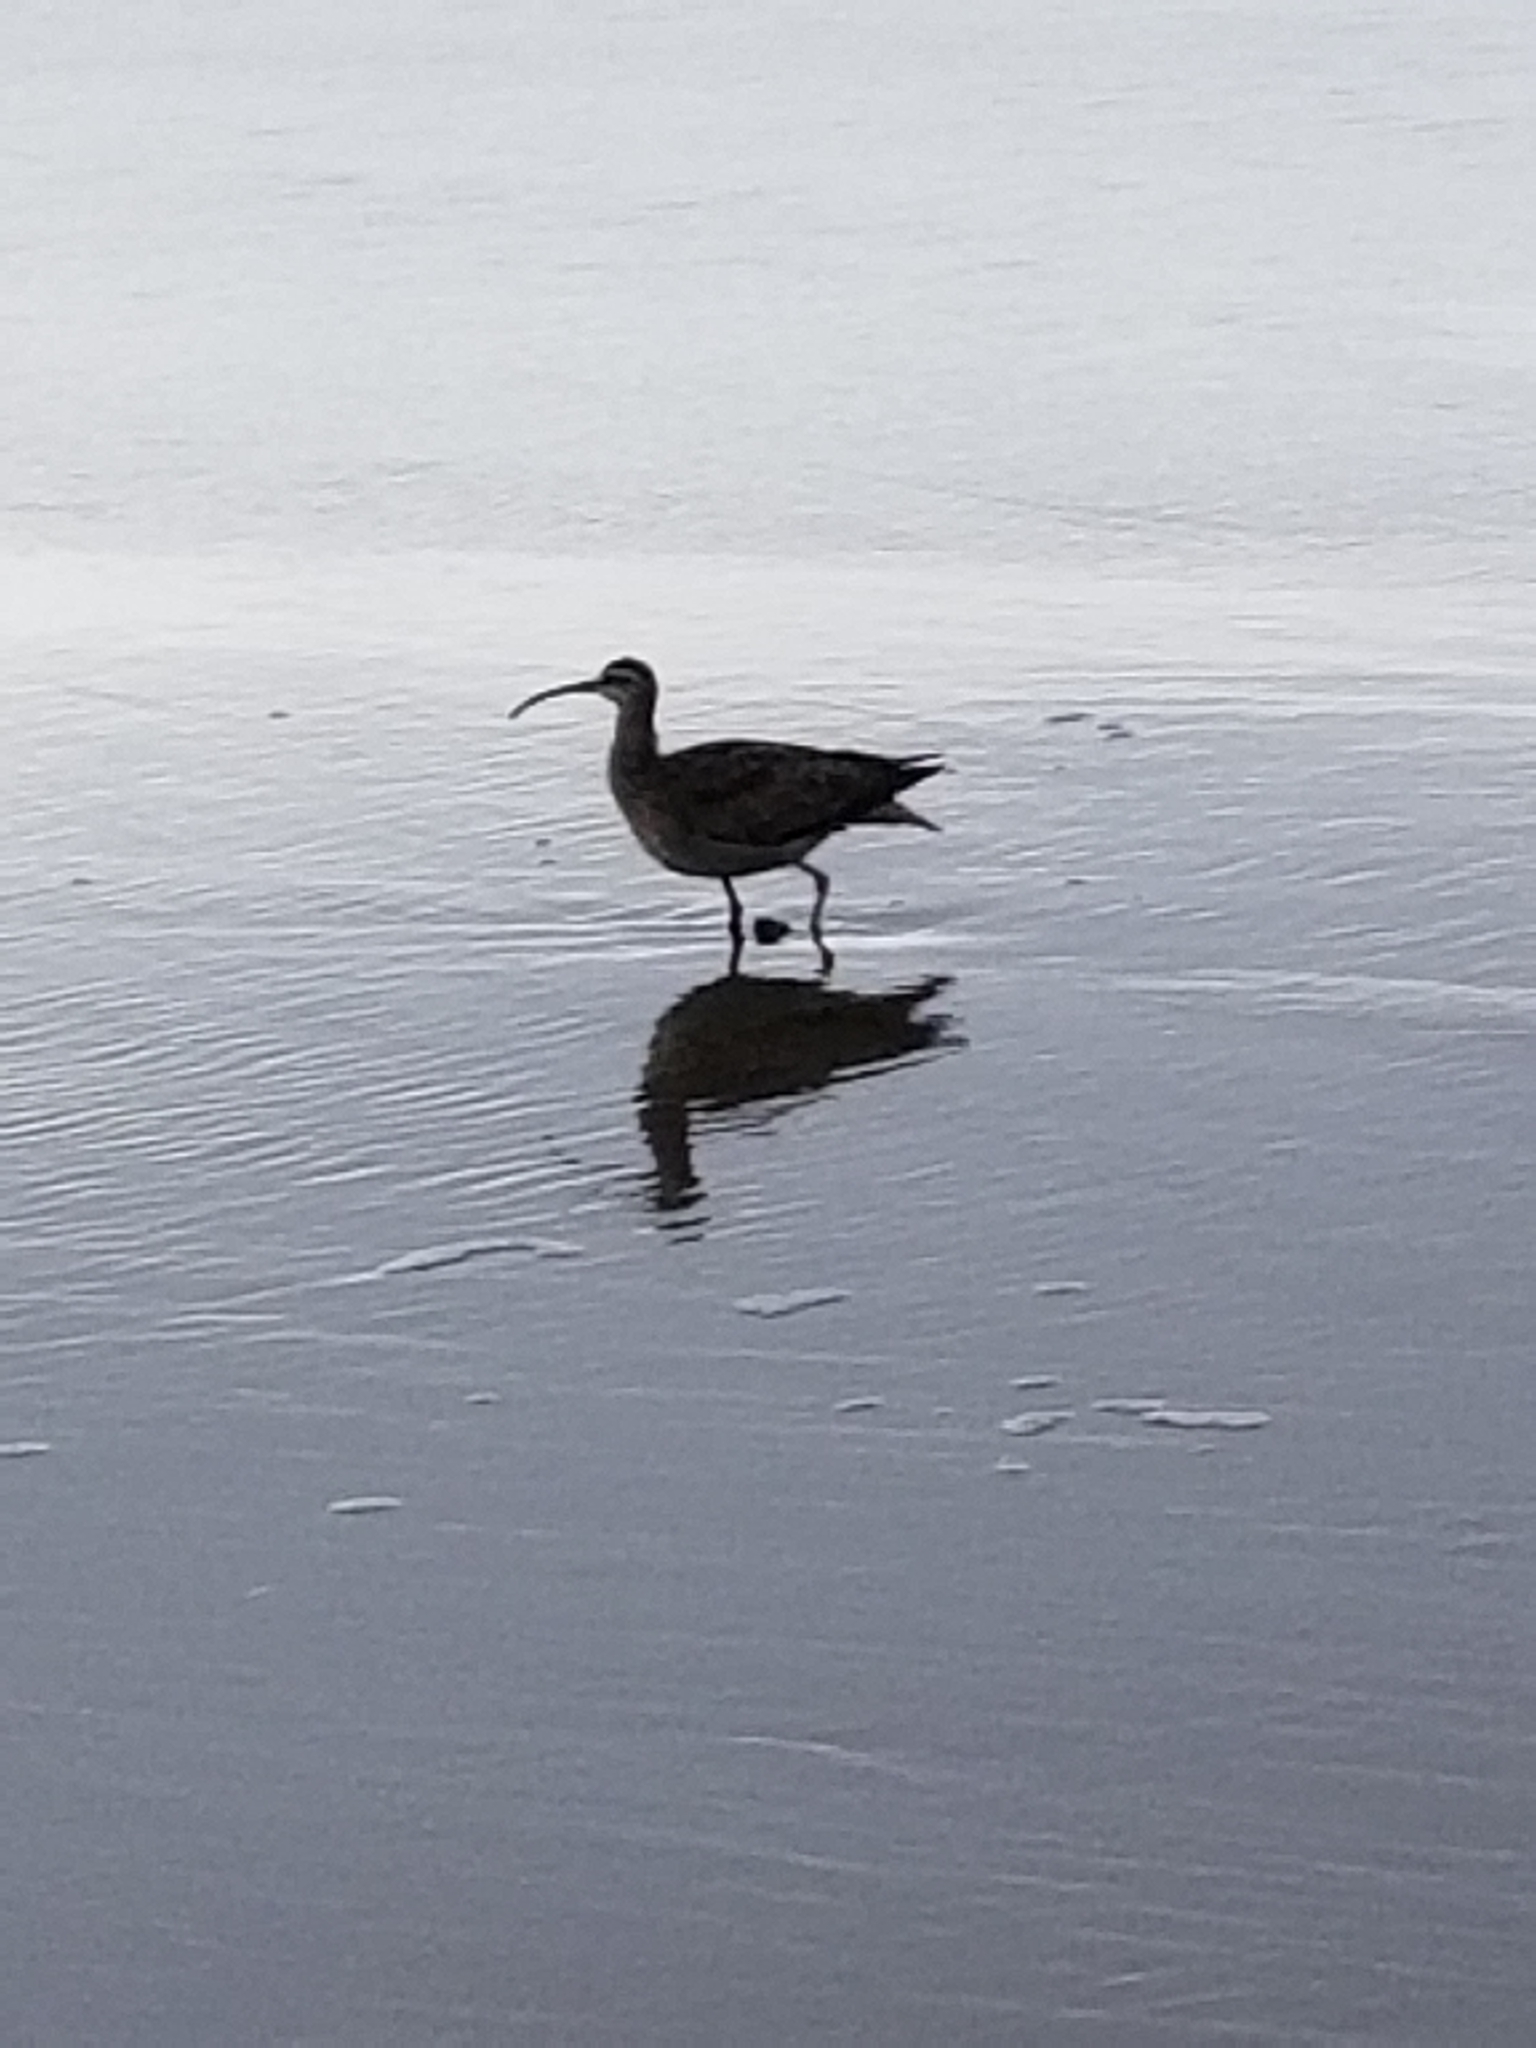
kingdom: Animalia
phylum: Chordata
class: Aves
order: Charadriiformes
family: Scolopacidae
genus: Numenius
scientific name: Numenius phaeopus
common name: Whimbrel
